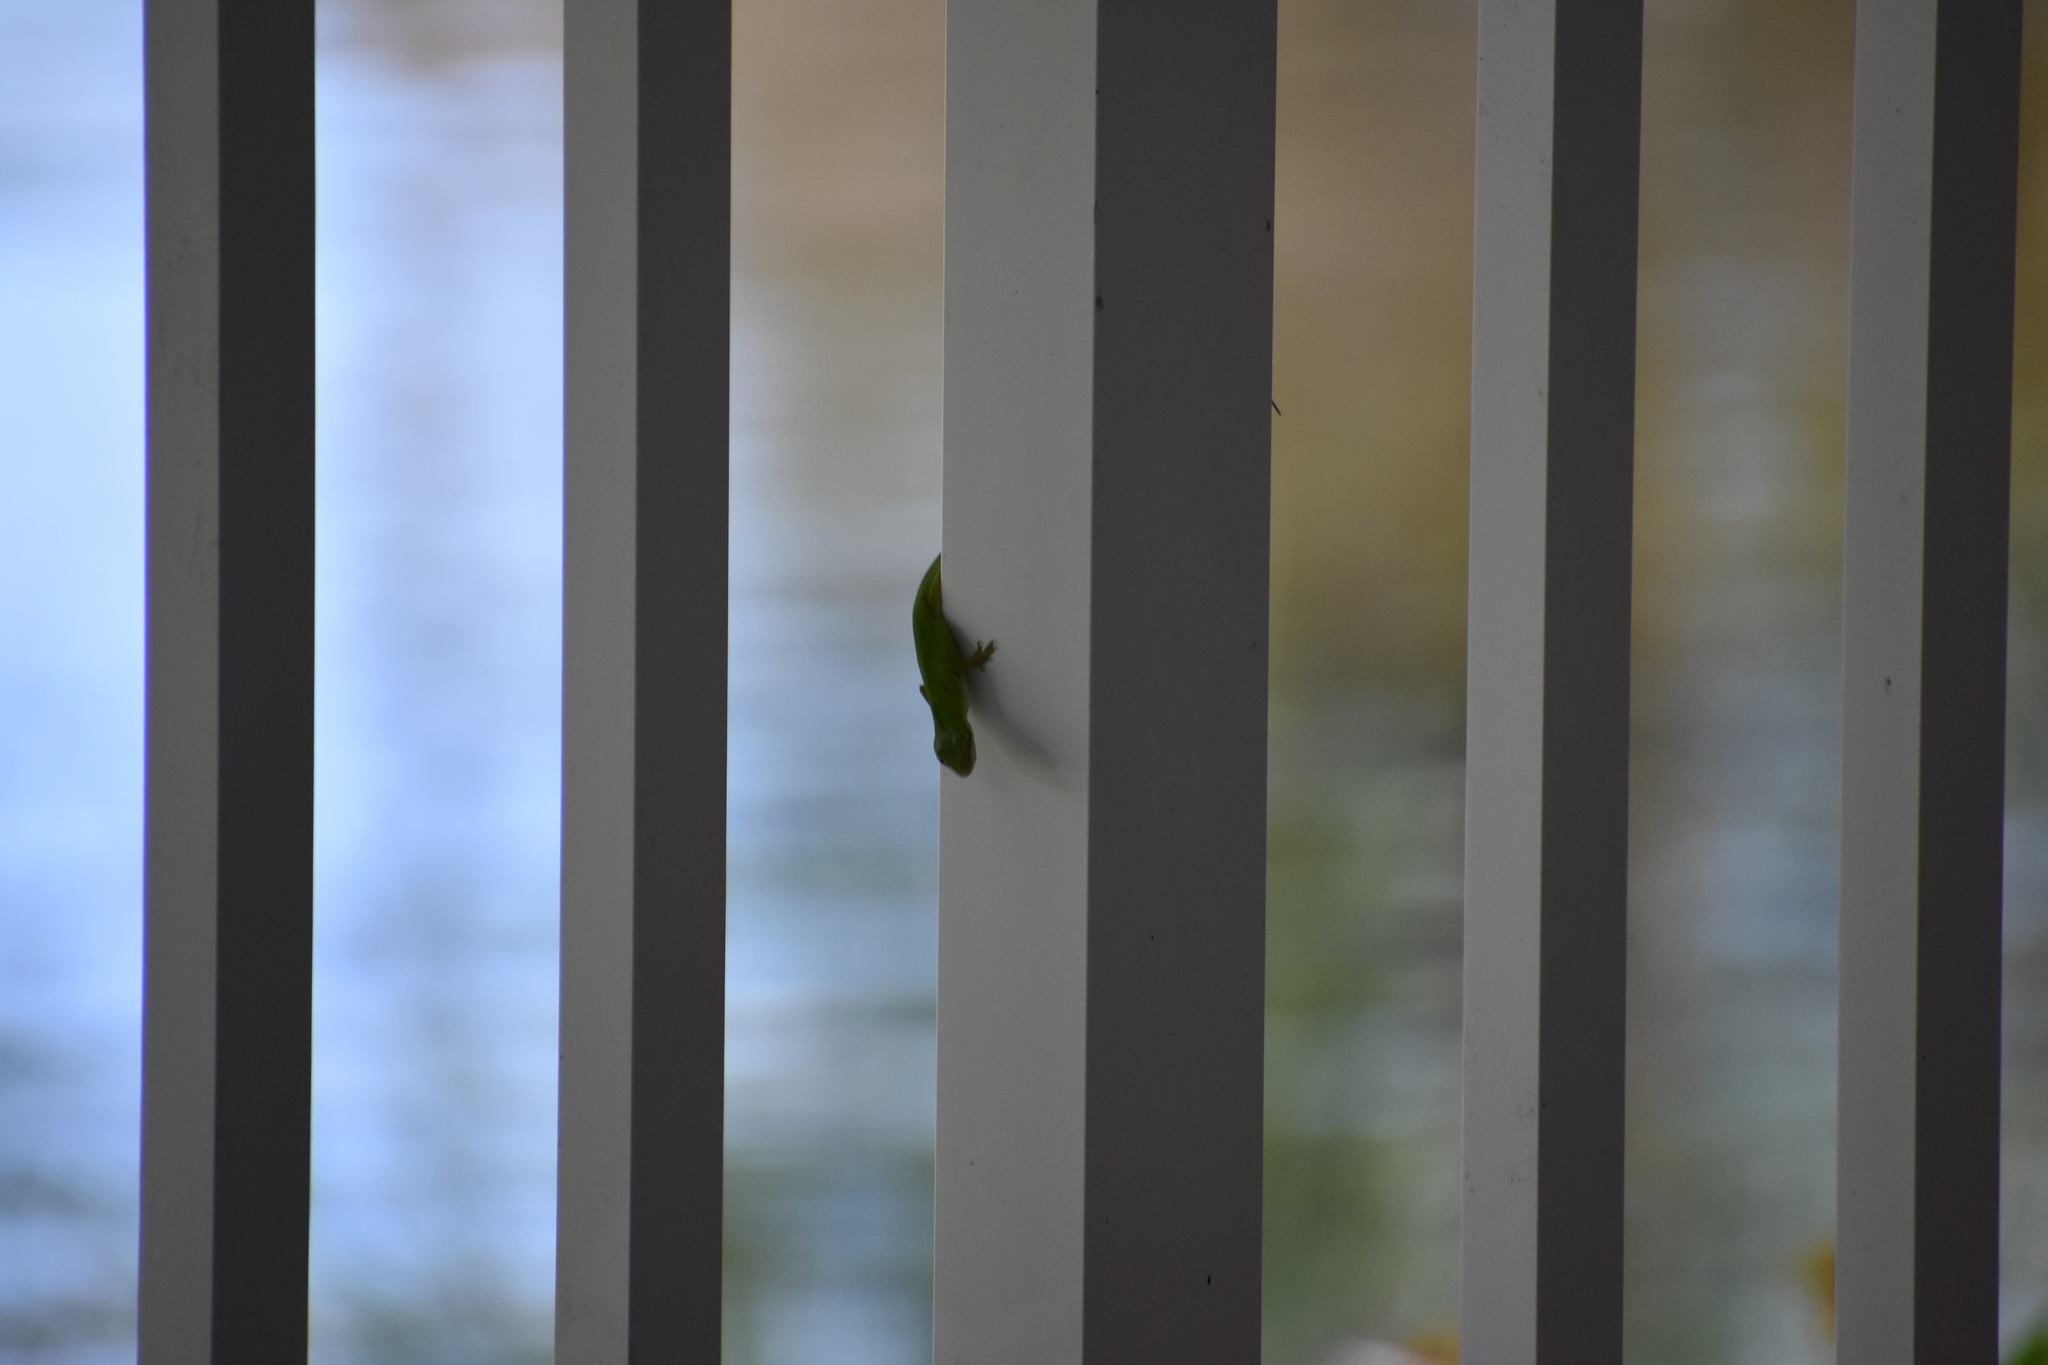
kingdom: Animalia
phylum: Chordata
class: Squamata
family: Dactyloidae
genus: Anolis
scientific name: Anolis carolinensis
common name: Green anole
